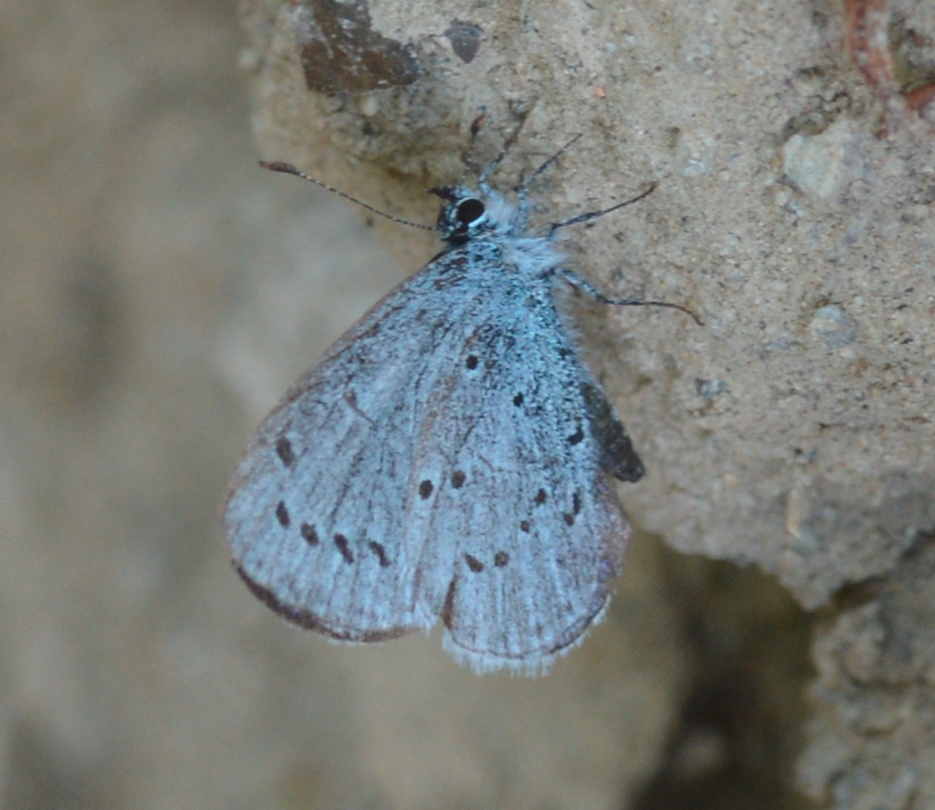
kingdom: Animalia
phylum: Arthropoda
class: Insecta
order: Lepidoptera
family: Lycaenidae
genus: Celastrina
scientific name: Celastrina argiolus
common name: Holly blue
